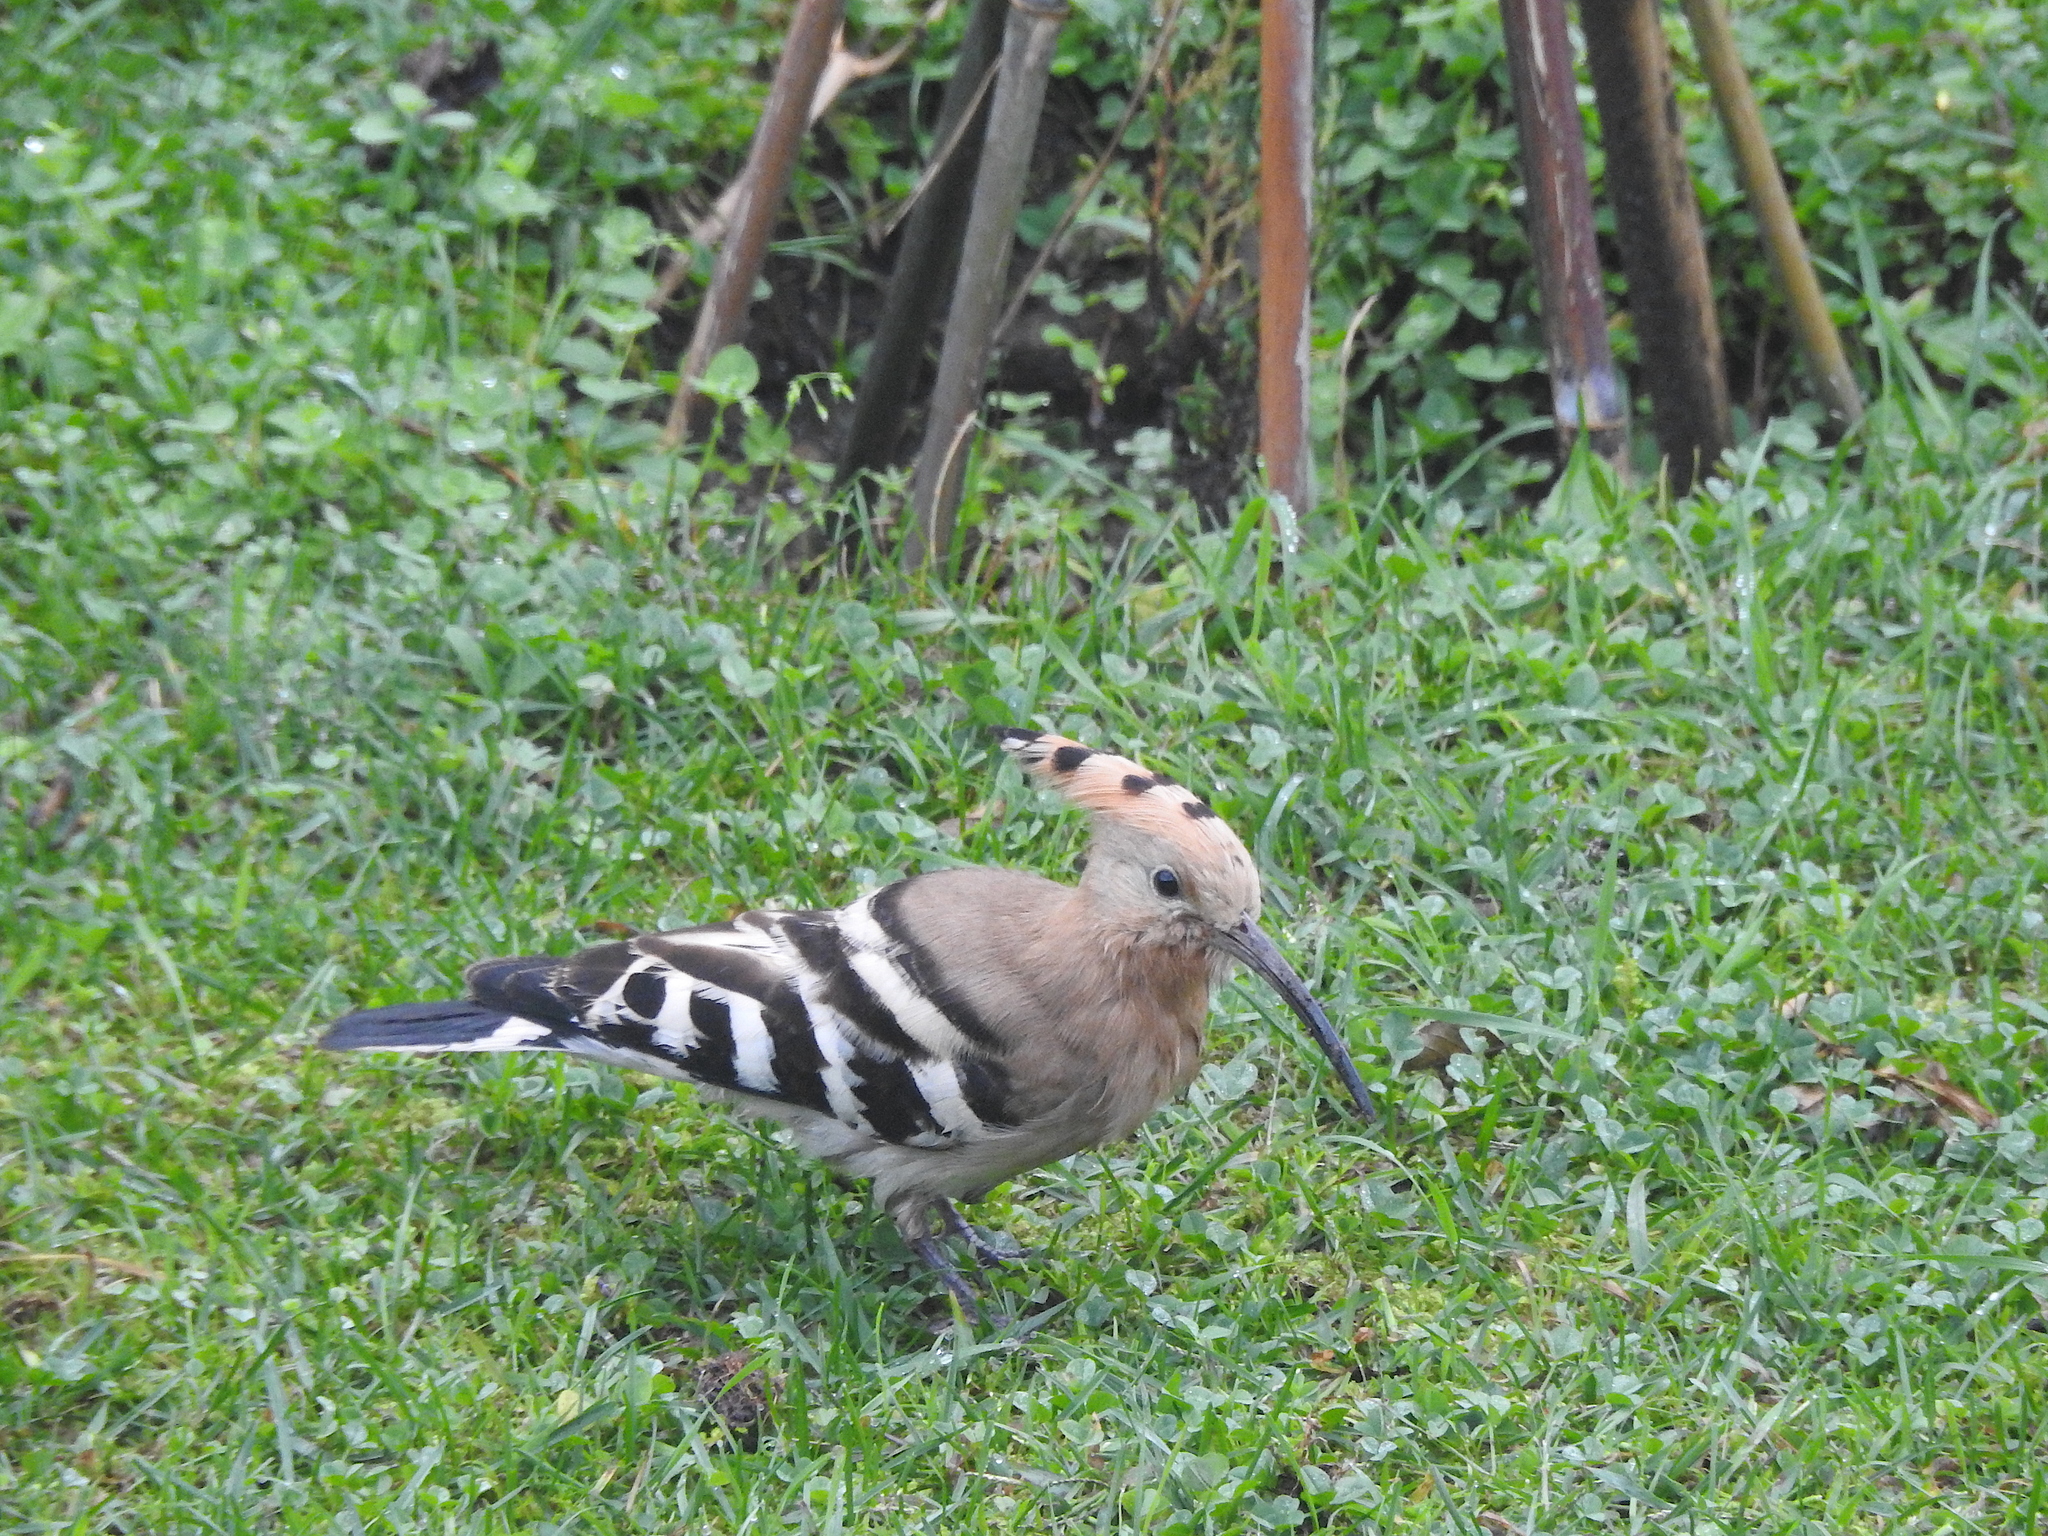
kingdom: Animalia
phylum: Chordata
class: Aves
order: Bucerotiformes
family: Upupidae
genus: Upupa
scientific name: Upupa epops
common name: Eurasian hoopoe
